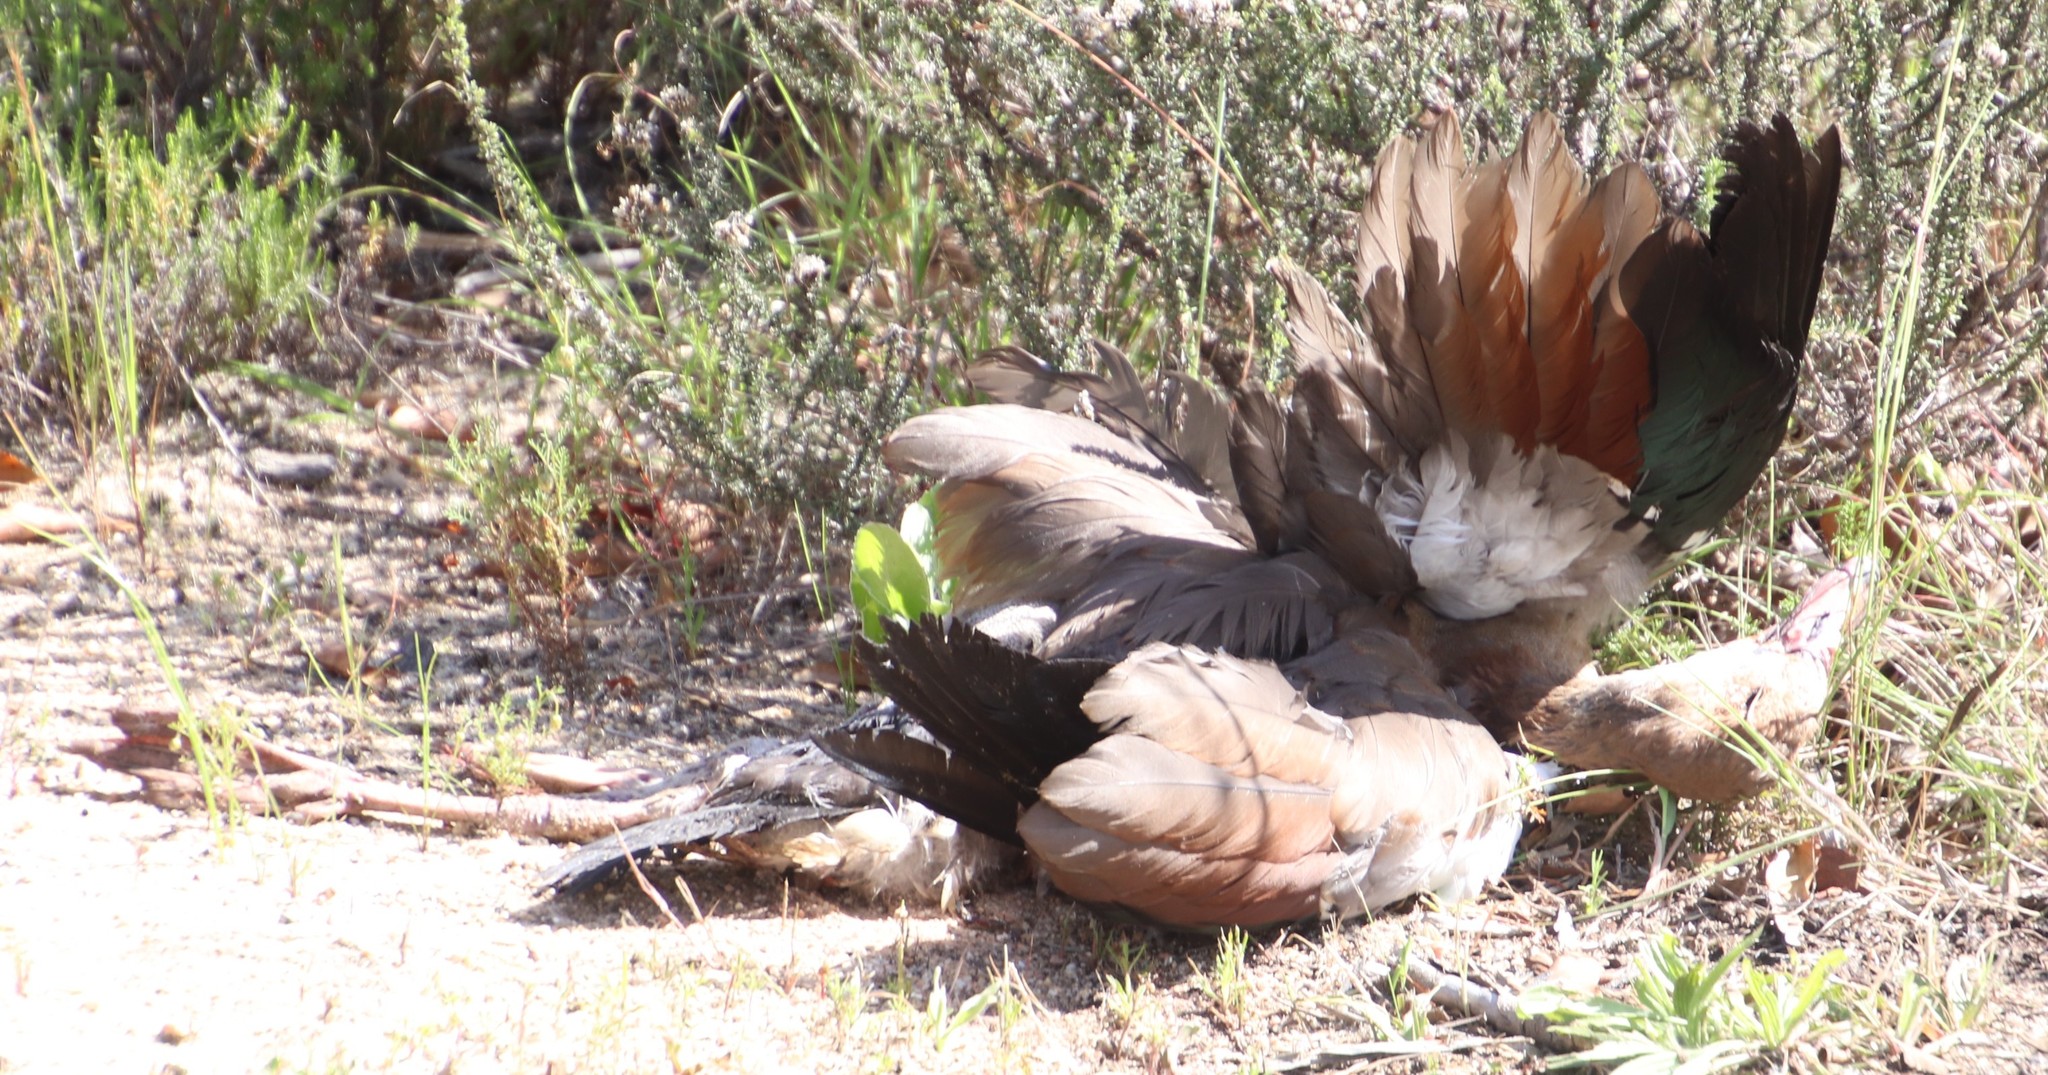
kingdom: Animalia
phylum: Chordata
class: Aves
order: Anseriformes
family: Anatidae
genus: Alopochen
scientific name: Alopochen aegyptiaca
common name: Egyptian goose
